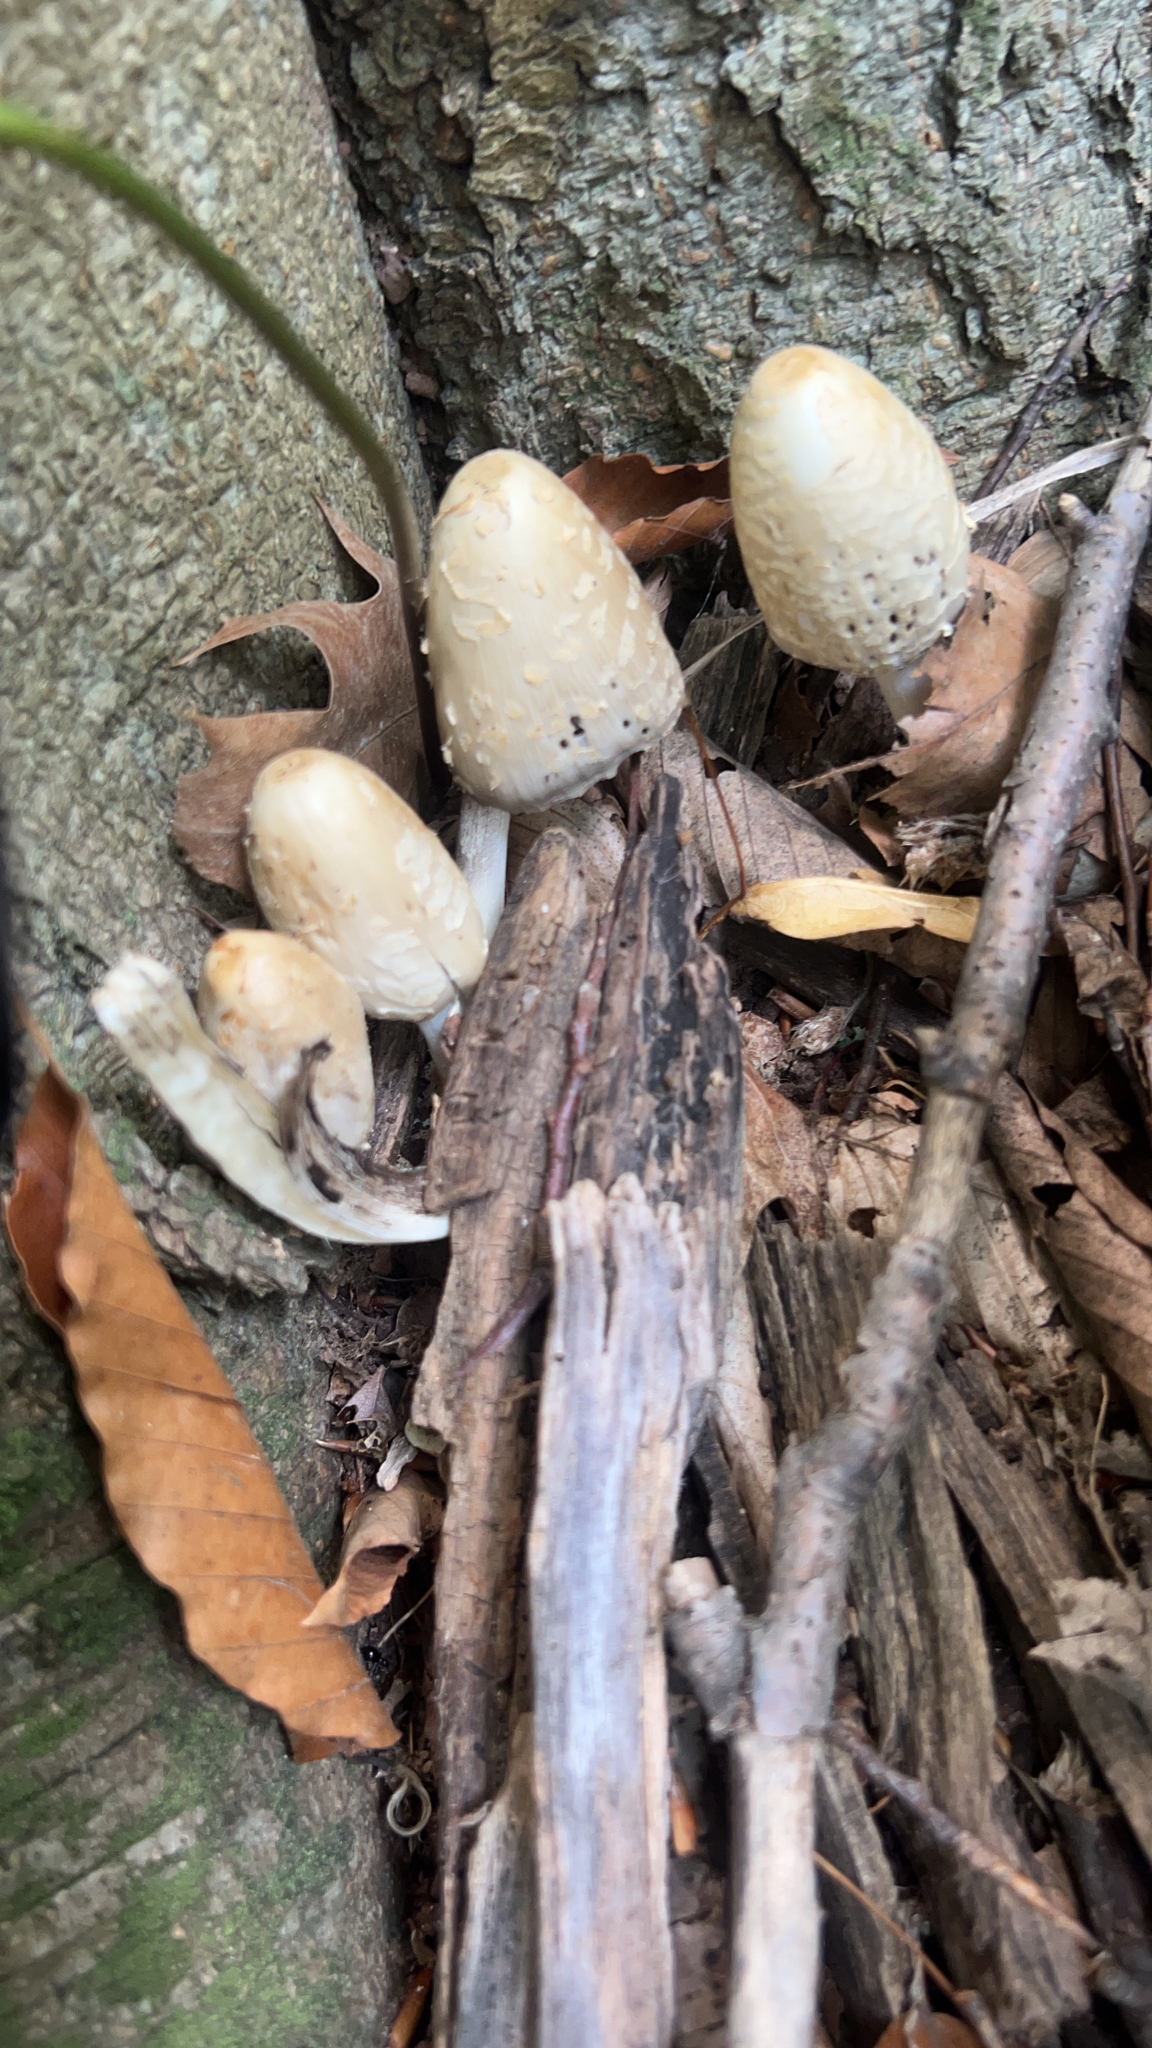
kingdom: Fungi
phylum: Basidiomycota
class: Agaricomycetes
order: Agaricales
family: Psathyrellaceae
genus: Coprinopsis
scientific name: Coprinopsis variegata
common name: Scaly ink cap
